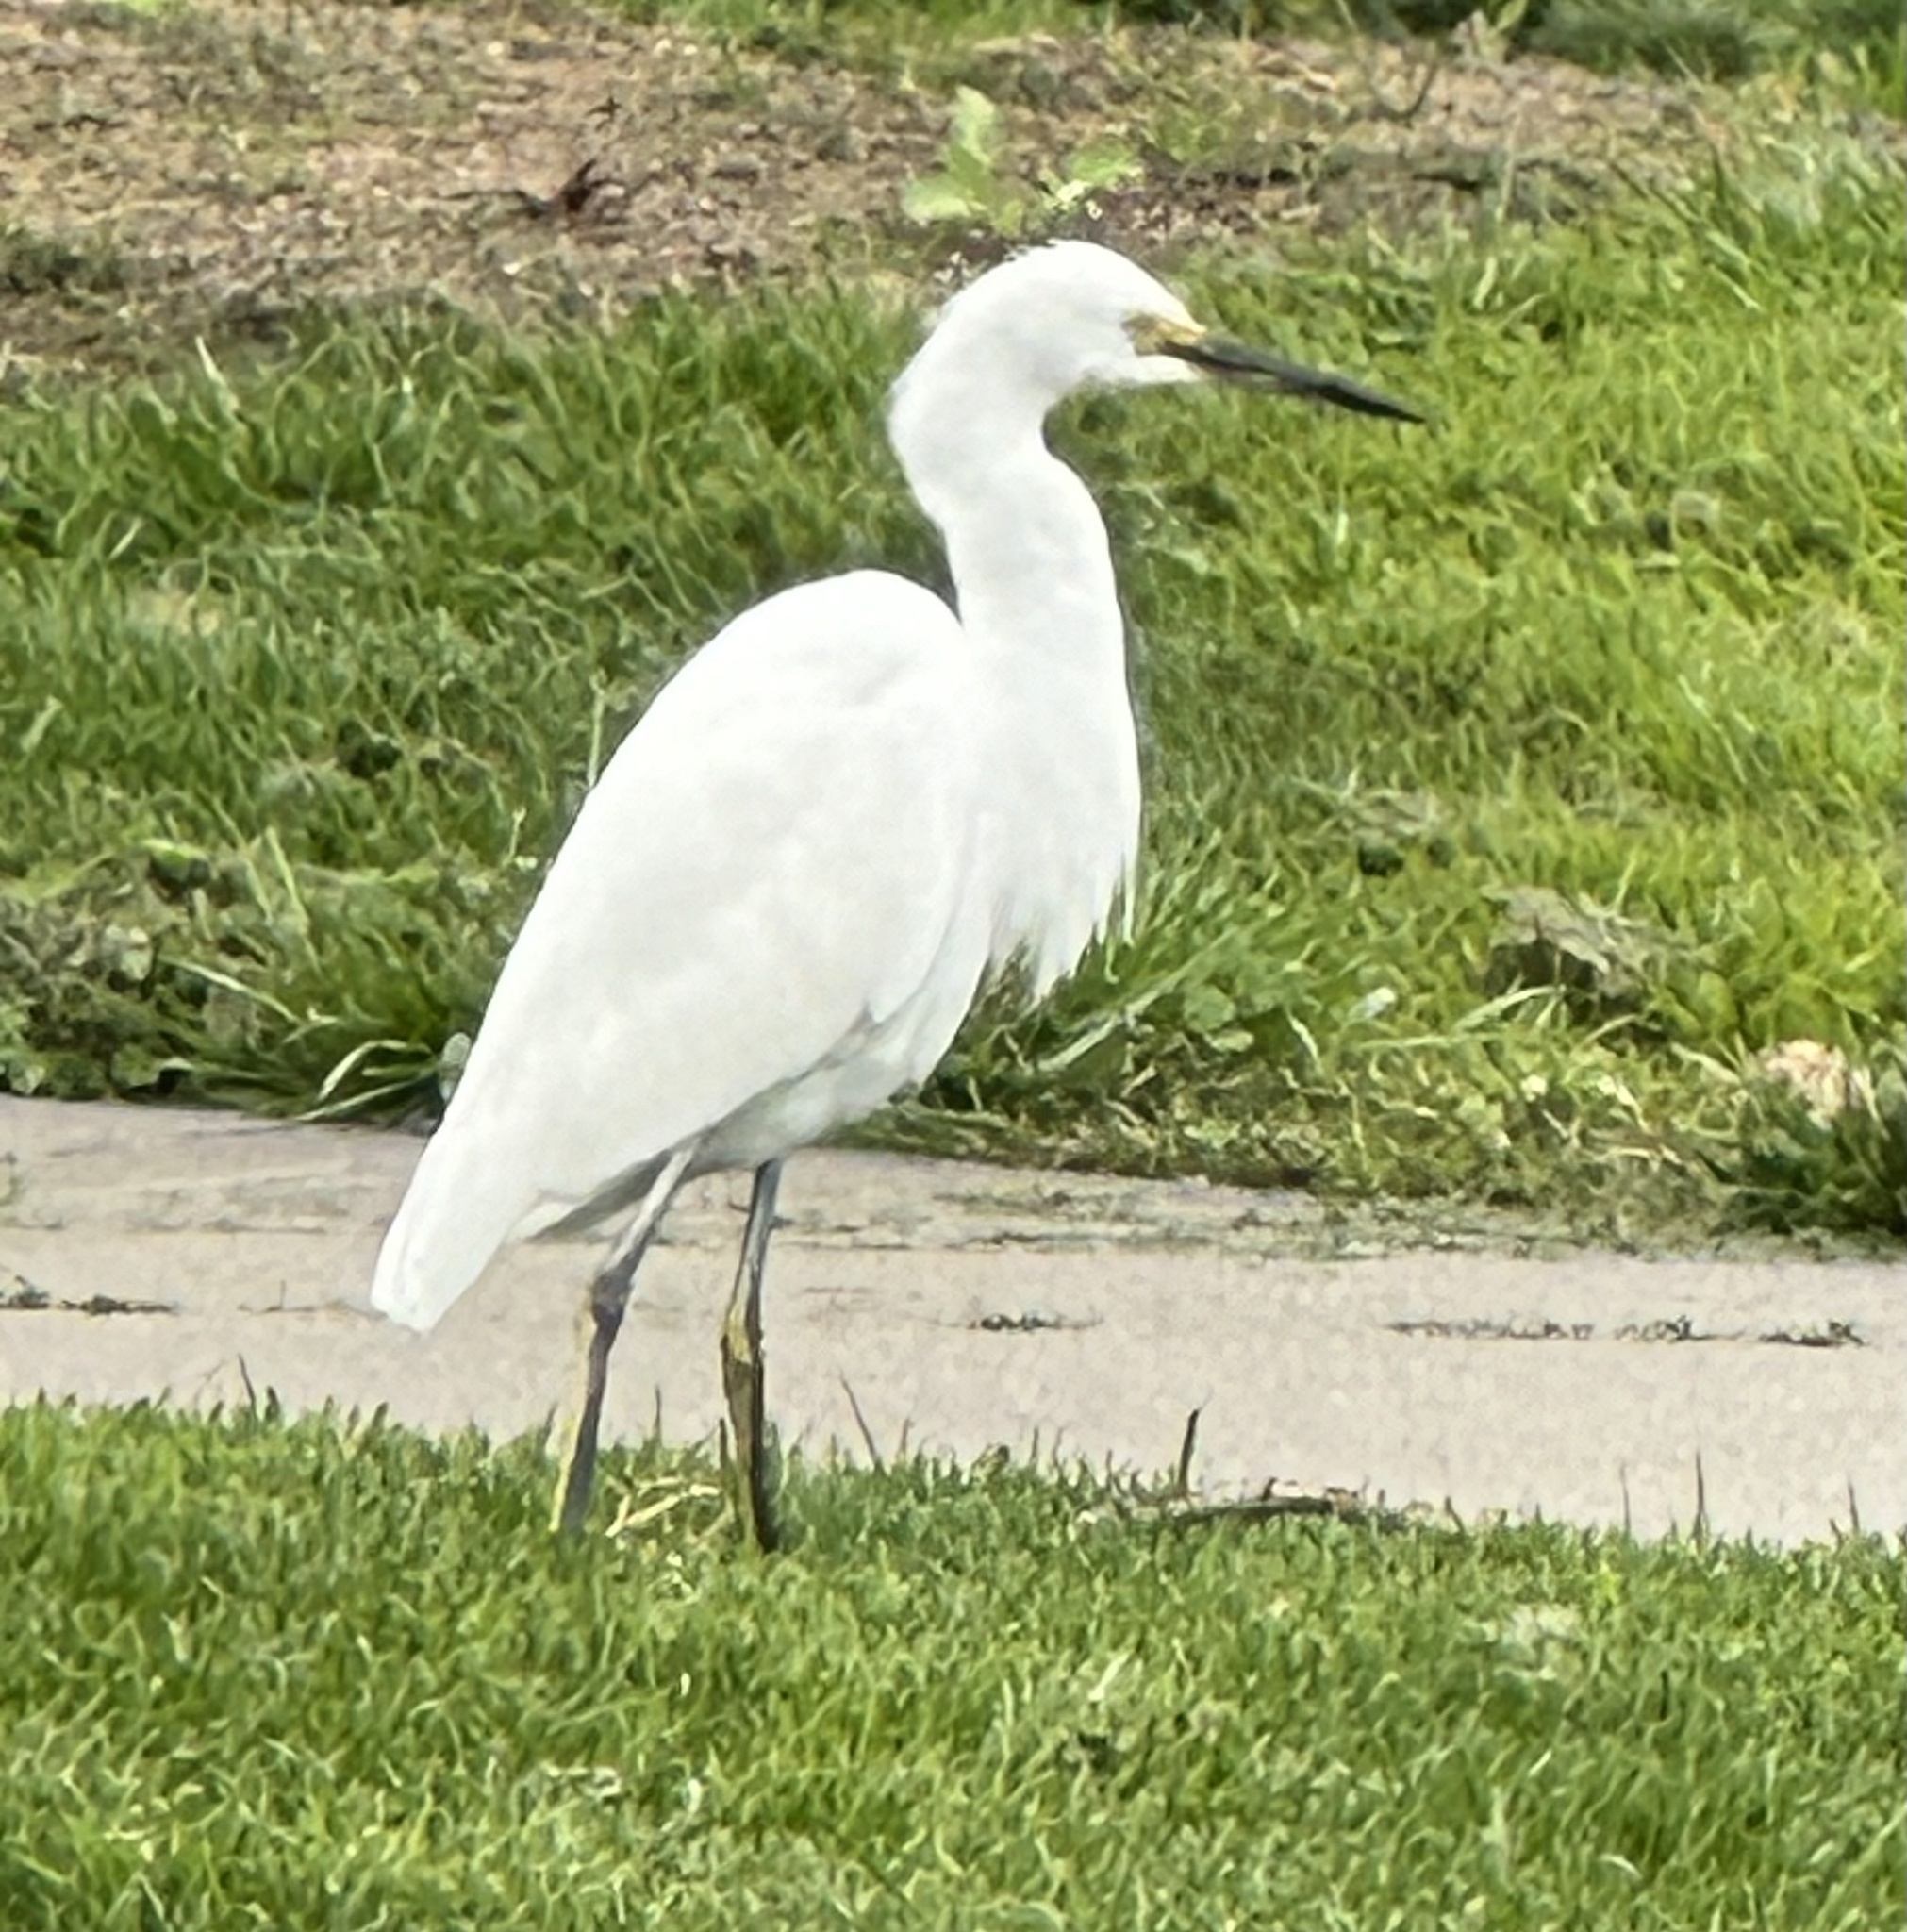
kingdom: Animalia
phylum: Chordata
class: Aves
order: Pelecaniformes
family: Ardeidae
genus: Egretta
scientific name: Egretta thula
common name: Snowy egret
